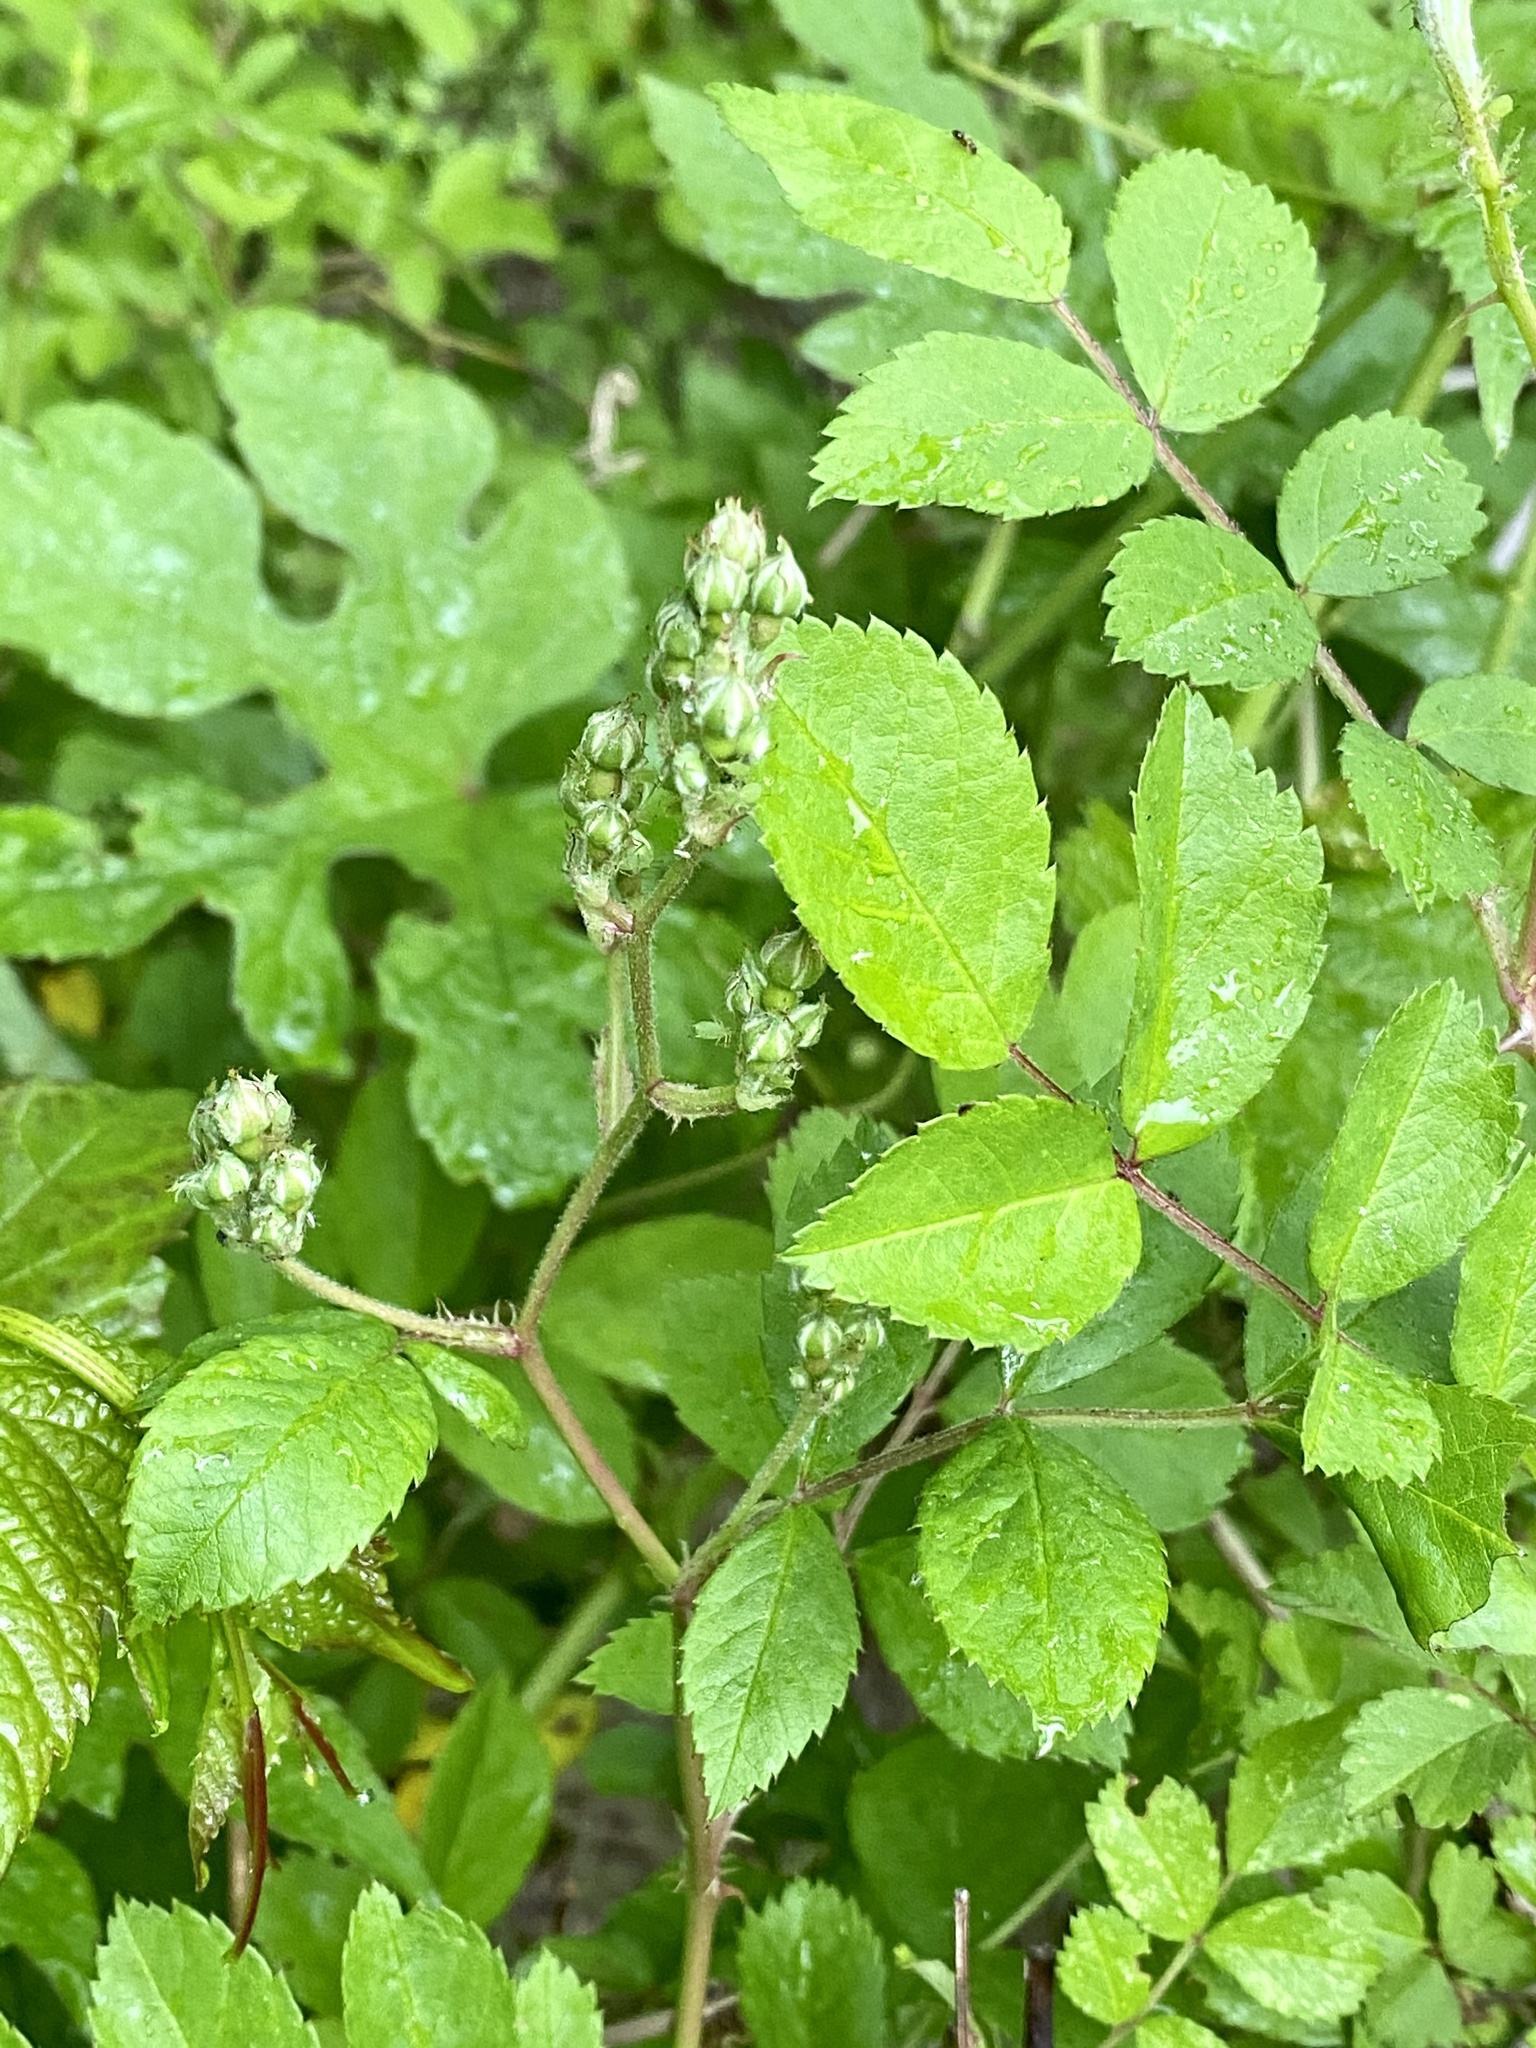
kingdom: Plantae
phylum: Tracheophyta
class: Magnoliopsida
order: Rosales
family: Rosaceae
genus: Rosa
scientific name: Rosa multiflora
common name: Multiflora rose
